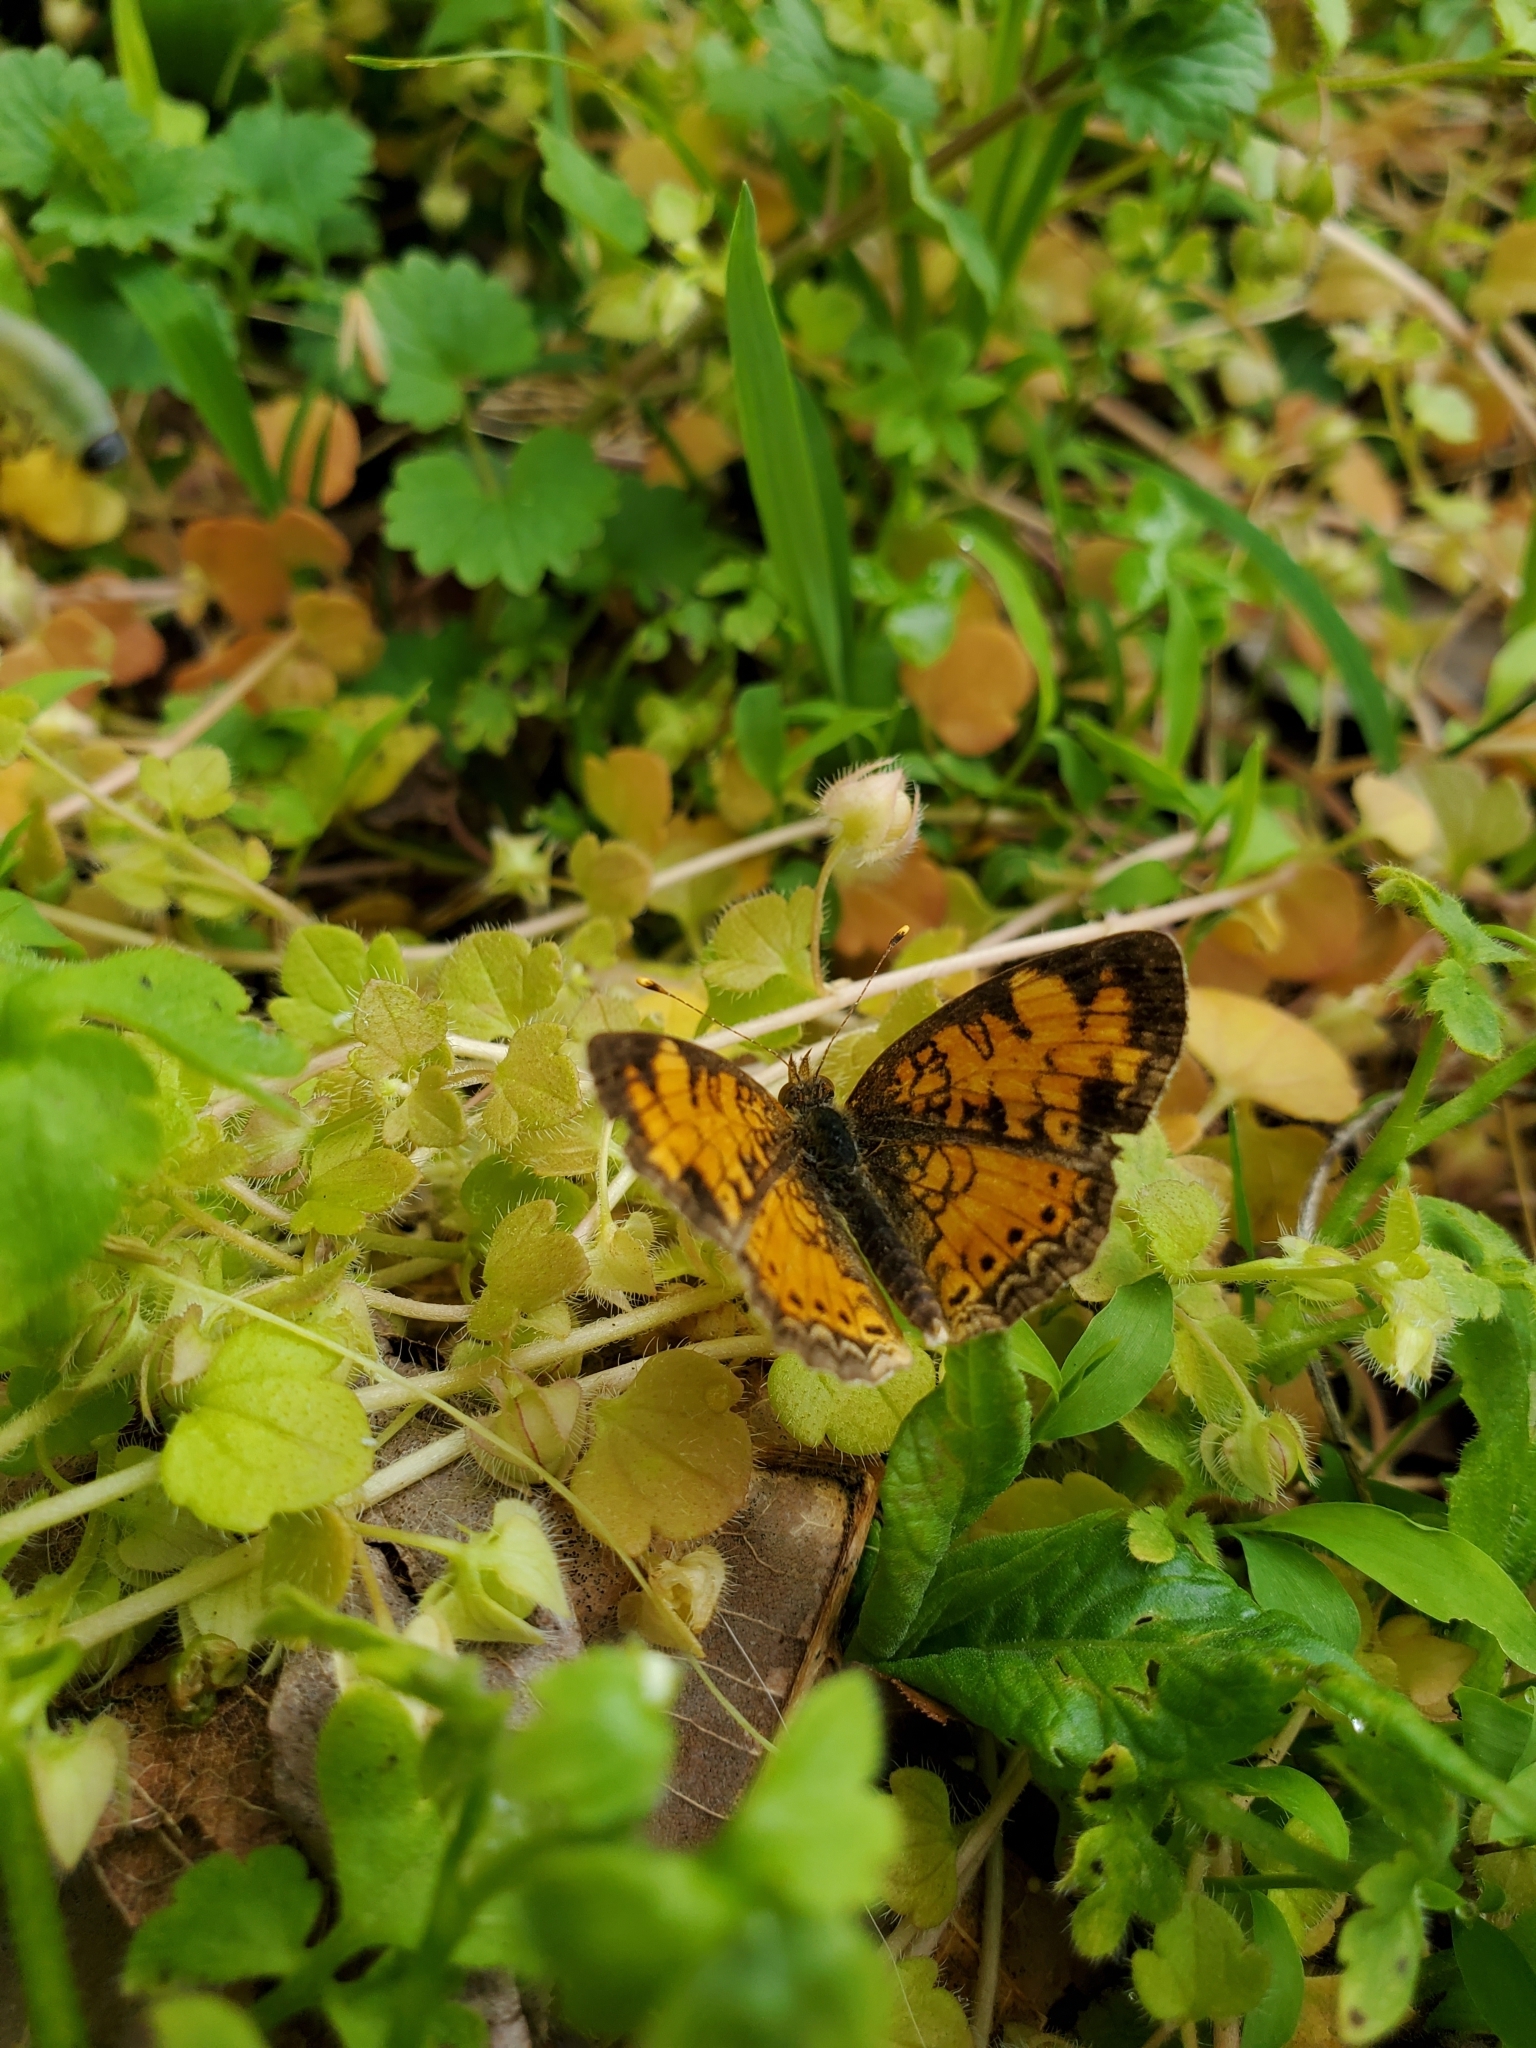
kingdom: Animalia
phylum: Arthropoda
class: Insecta
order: Lepidoptera
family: Nymphalidae
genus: Phyciodes
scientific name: Phyciodes tharos
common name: Pearl crescent
